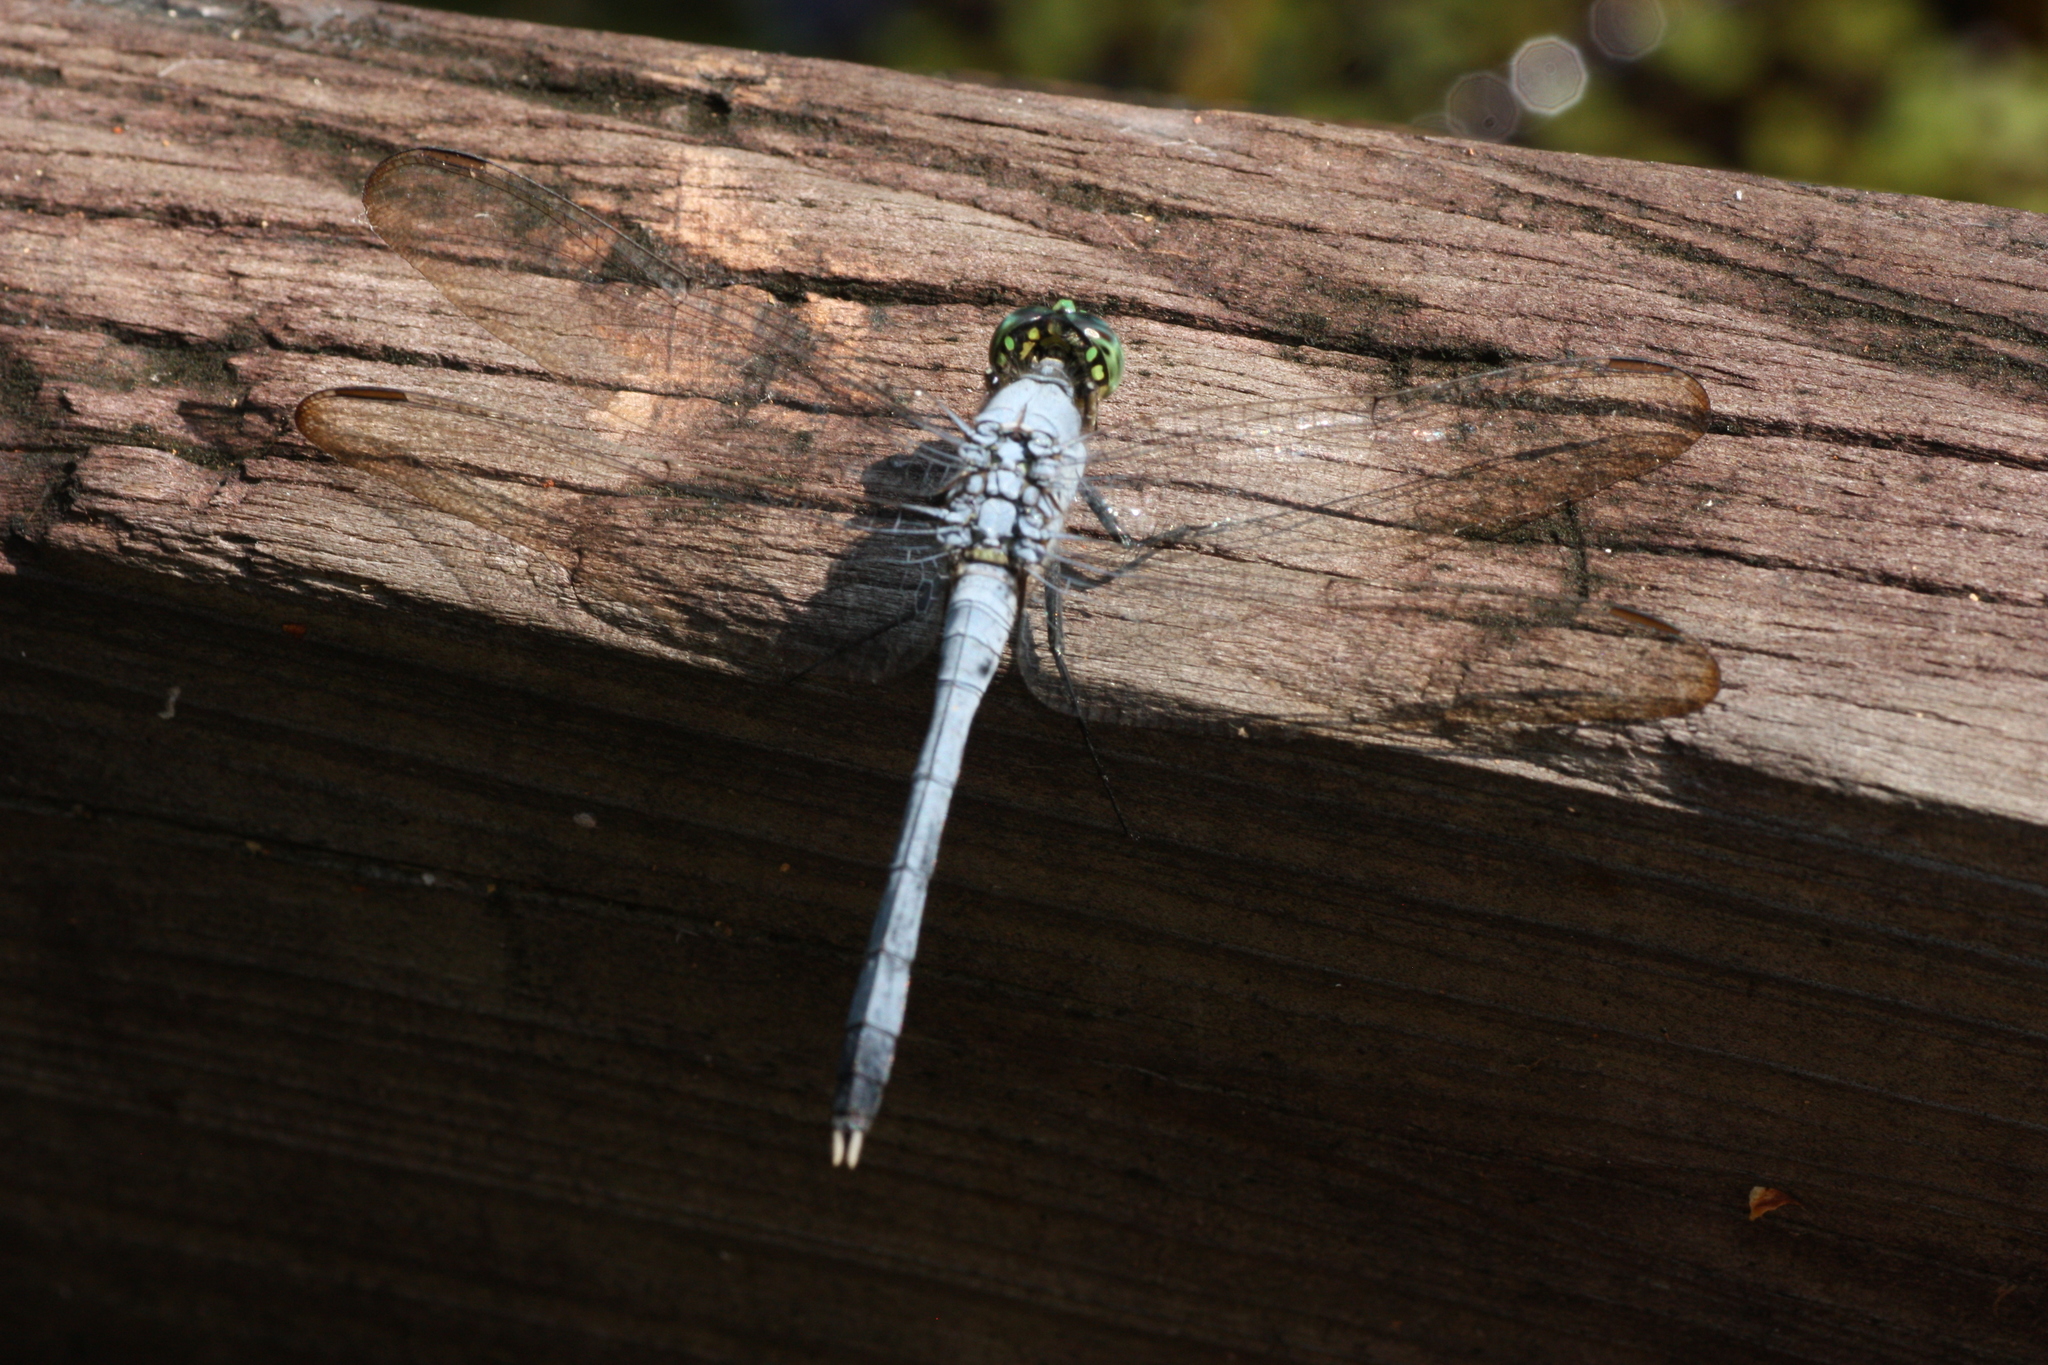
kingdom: Animalia
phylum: Arthropoda
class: Insecta
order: Odonata
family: Libellulidae
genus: Erythemis
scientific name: Erythemis simplicicollis
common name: Eastern pondhawk
